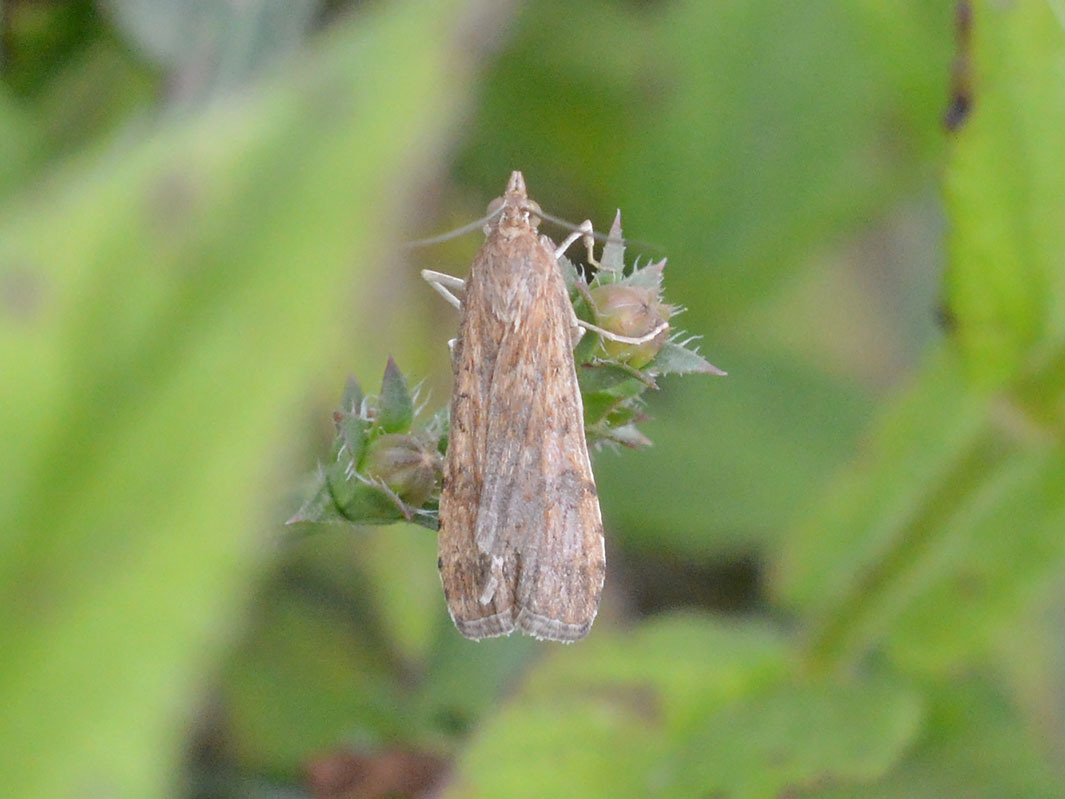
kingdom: Animalia
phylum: Arthropoda
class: Insecta
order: Lepidoptera
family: Crambidae
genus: Nomophila
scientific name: Nomophila noctuella
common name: Rush veneer
